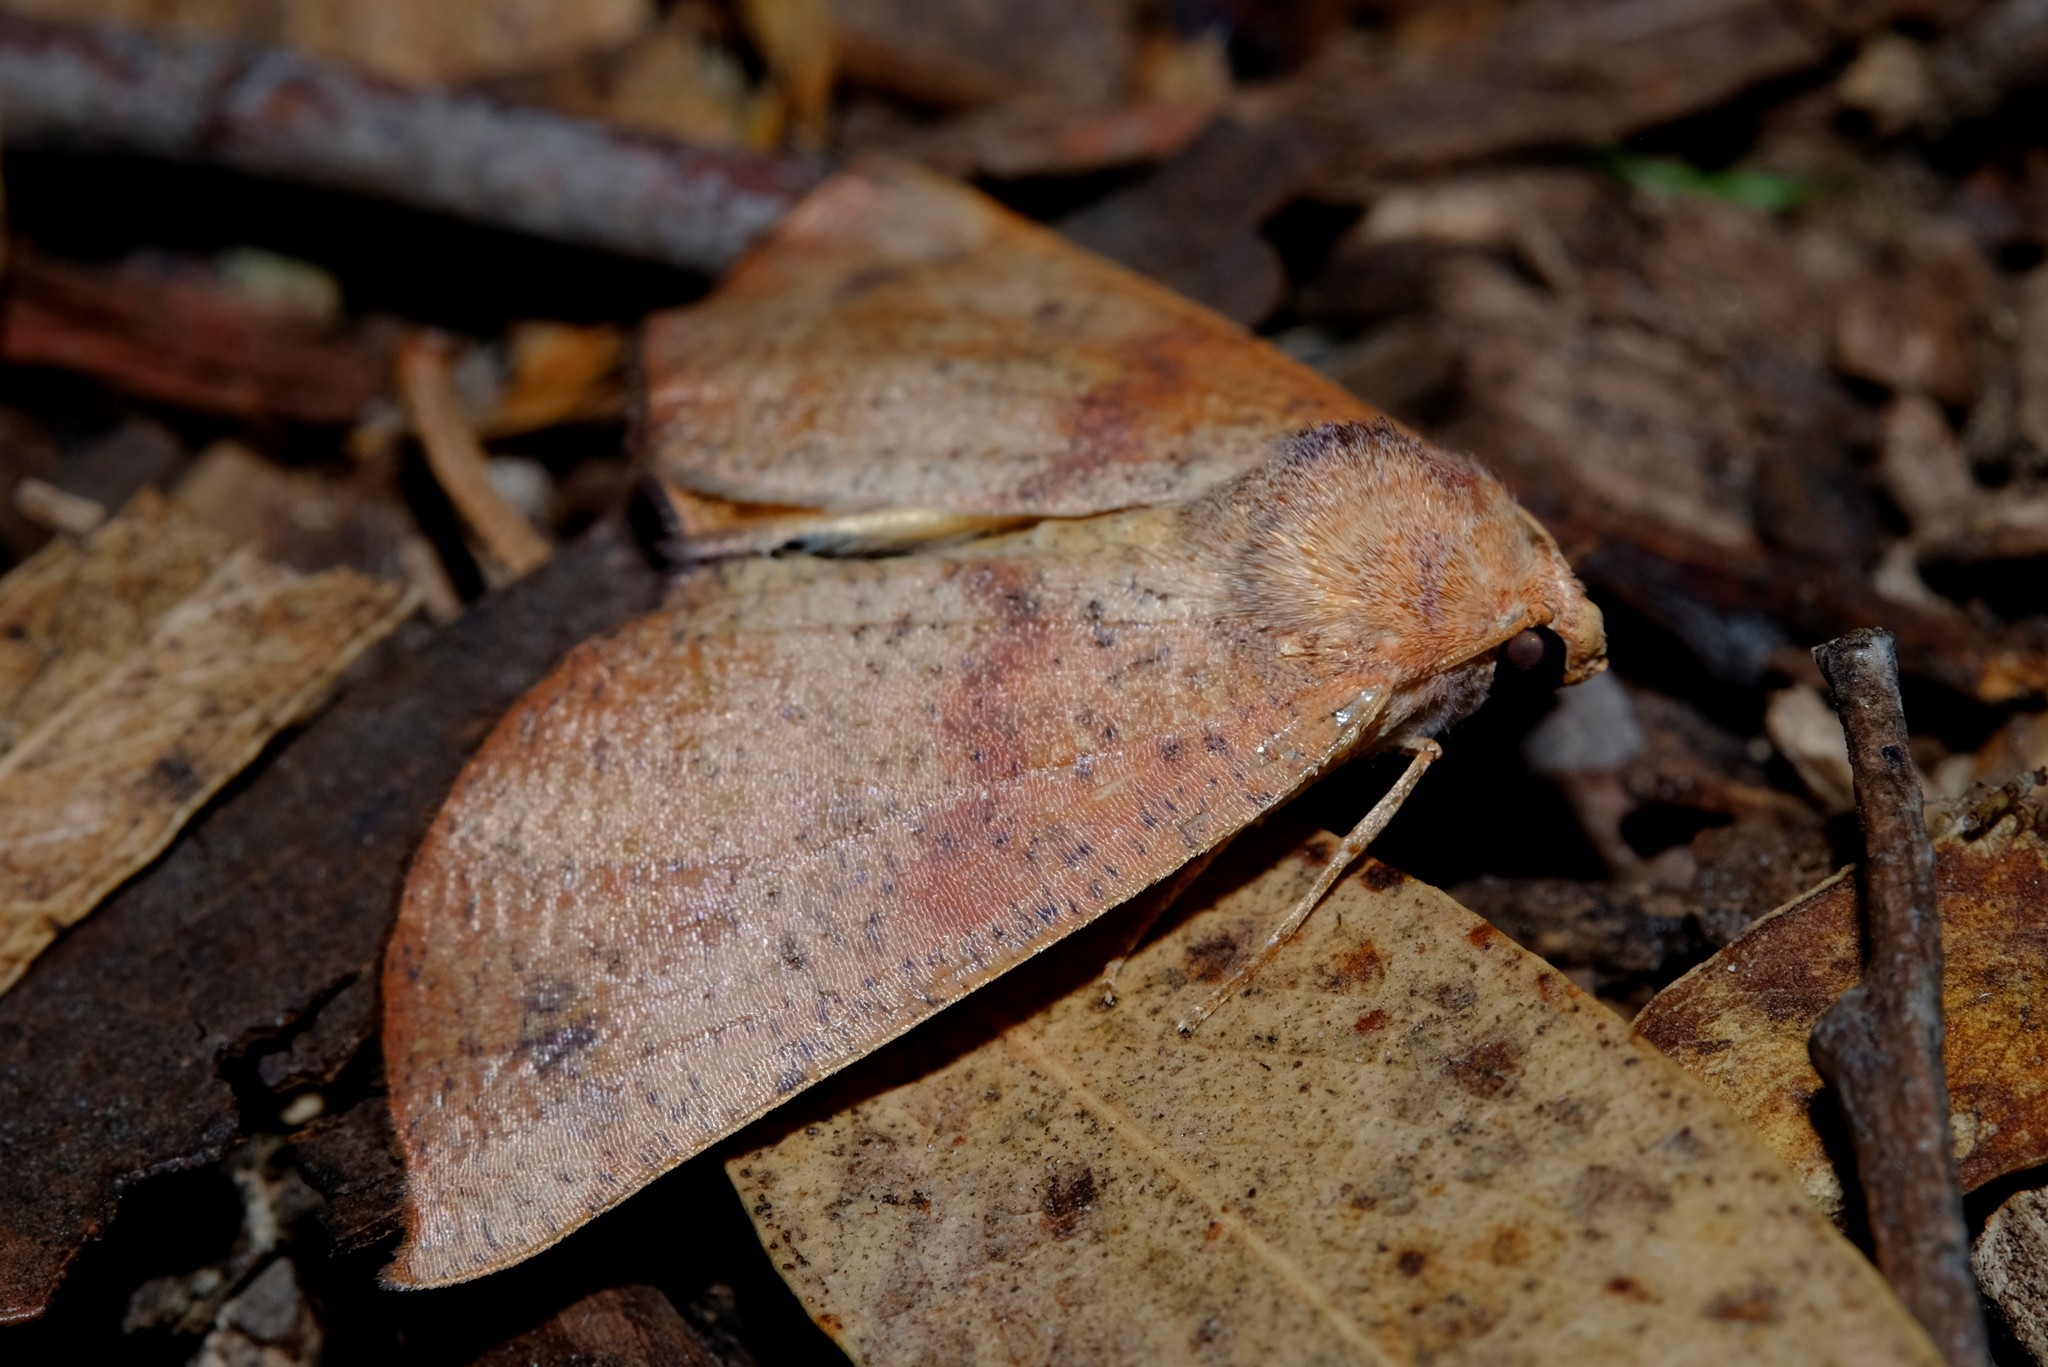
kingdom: Animalia
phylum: Arthropoda
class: Insecta
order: Lepidoptera
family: Geometridae
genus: Mnesampela
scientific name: Mnesampela privata
